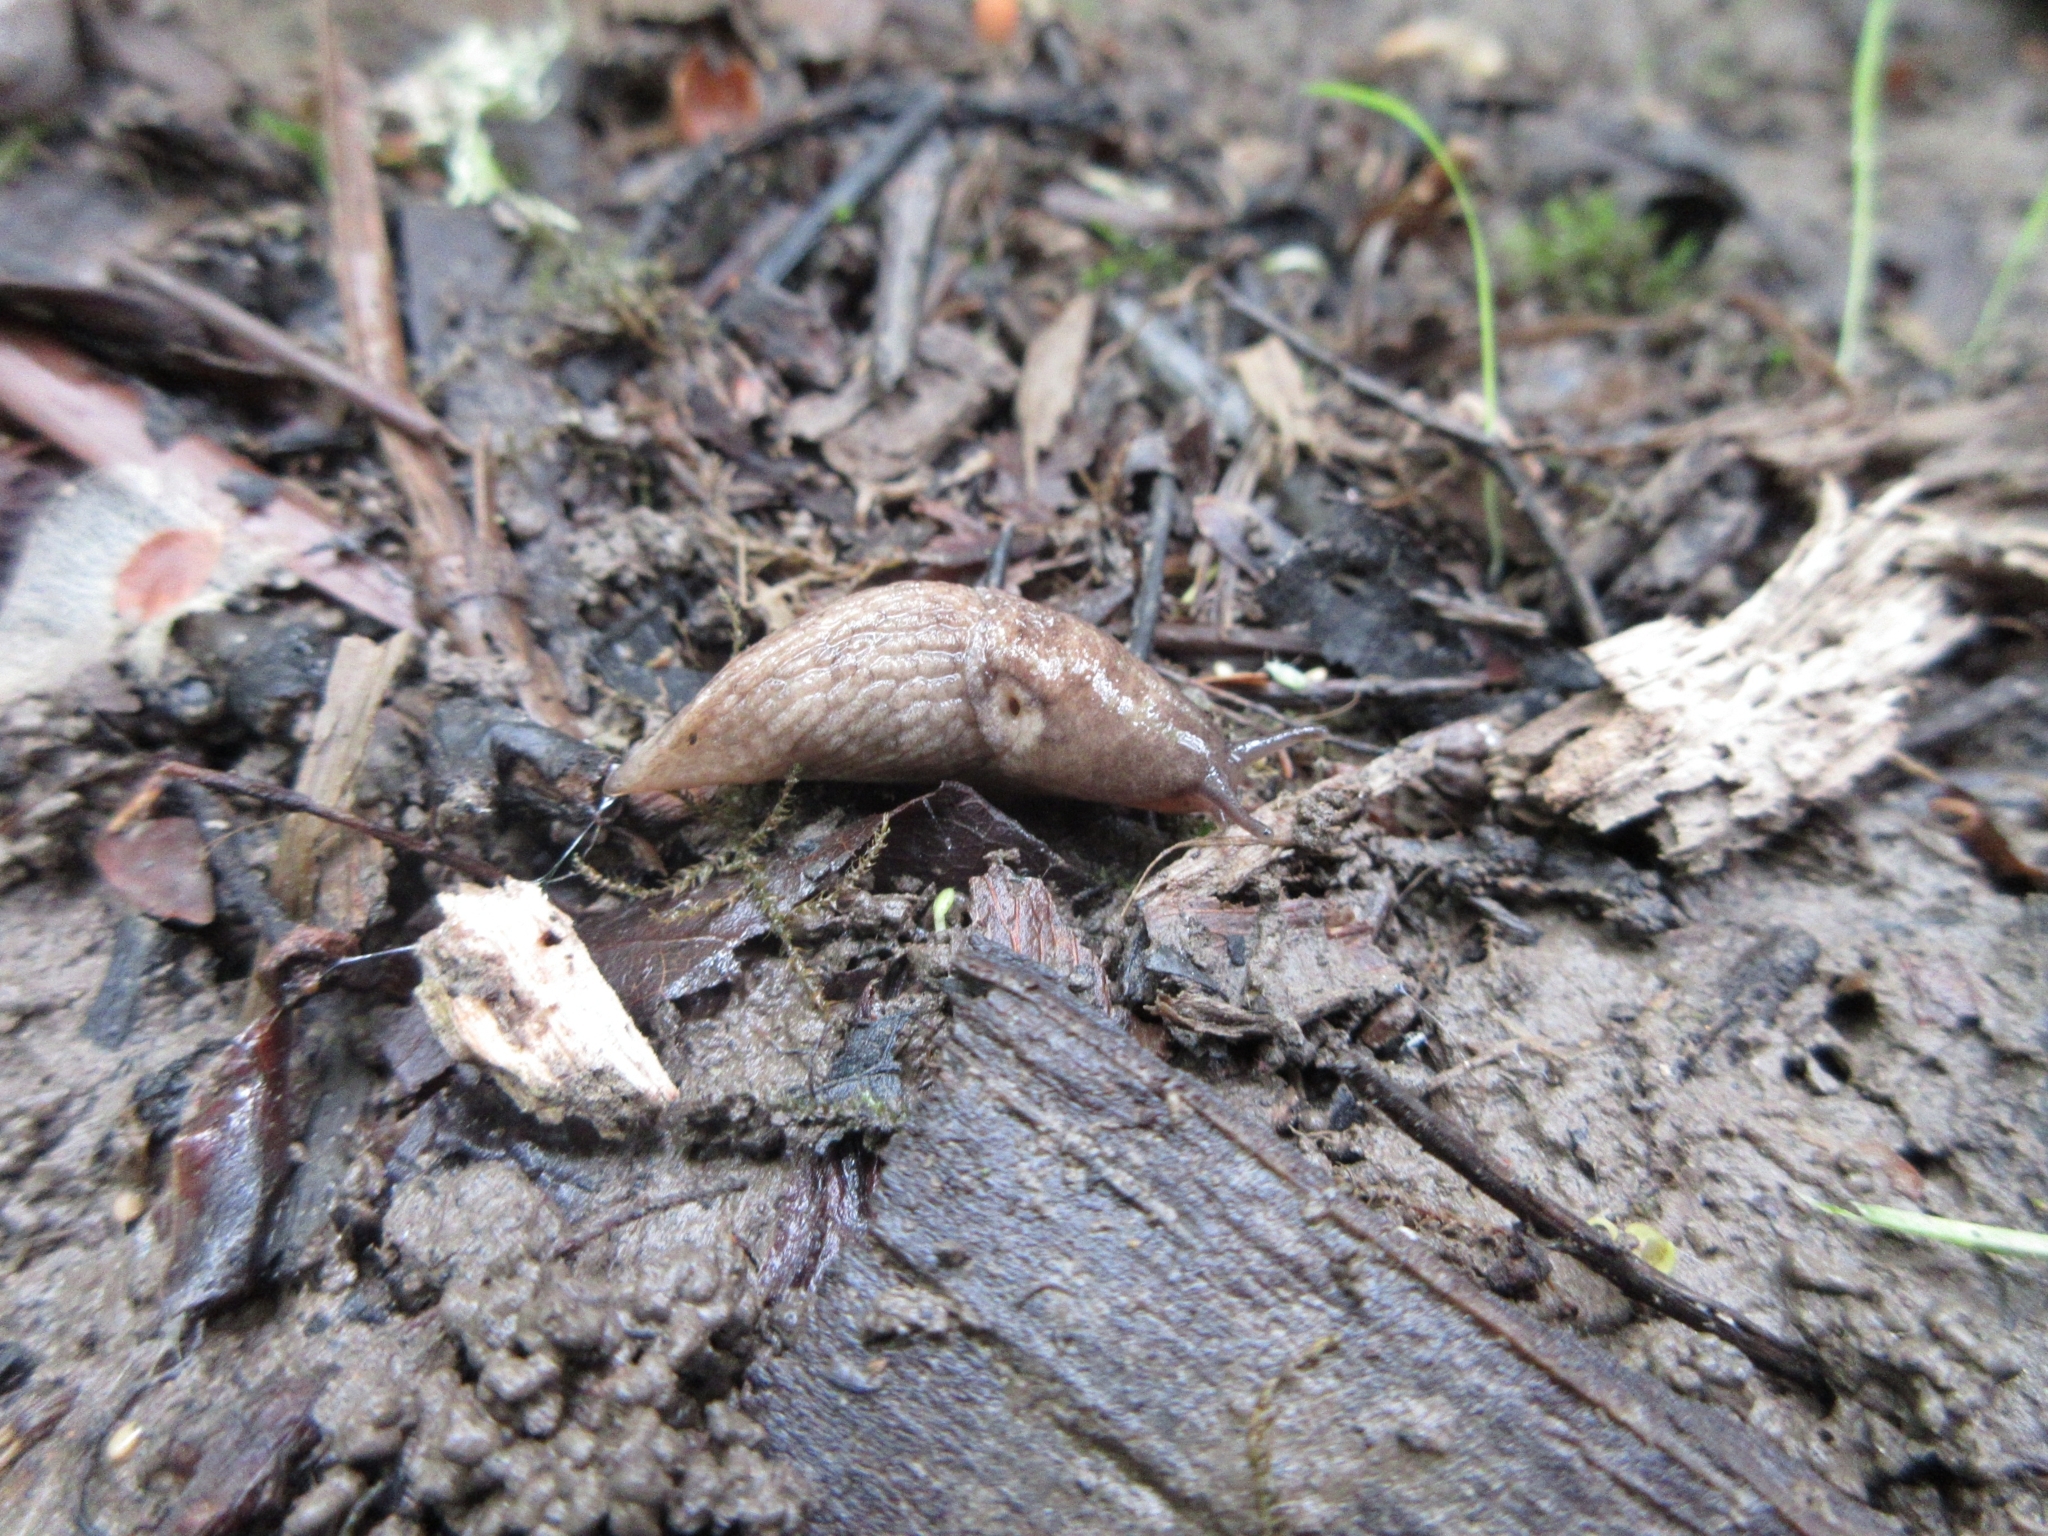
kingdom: Animalia
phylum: Mollusca
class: Gastropoda
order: Stylommatophora
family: Agriolimacidae
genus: Deroceras
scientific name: Deroceras reticulatum
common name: Gray field slug
